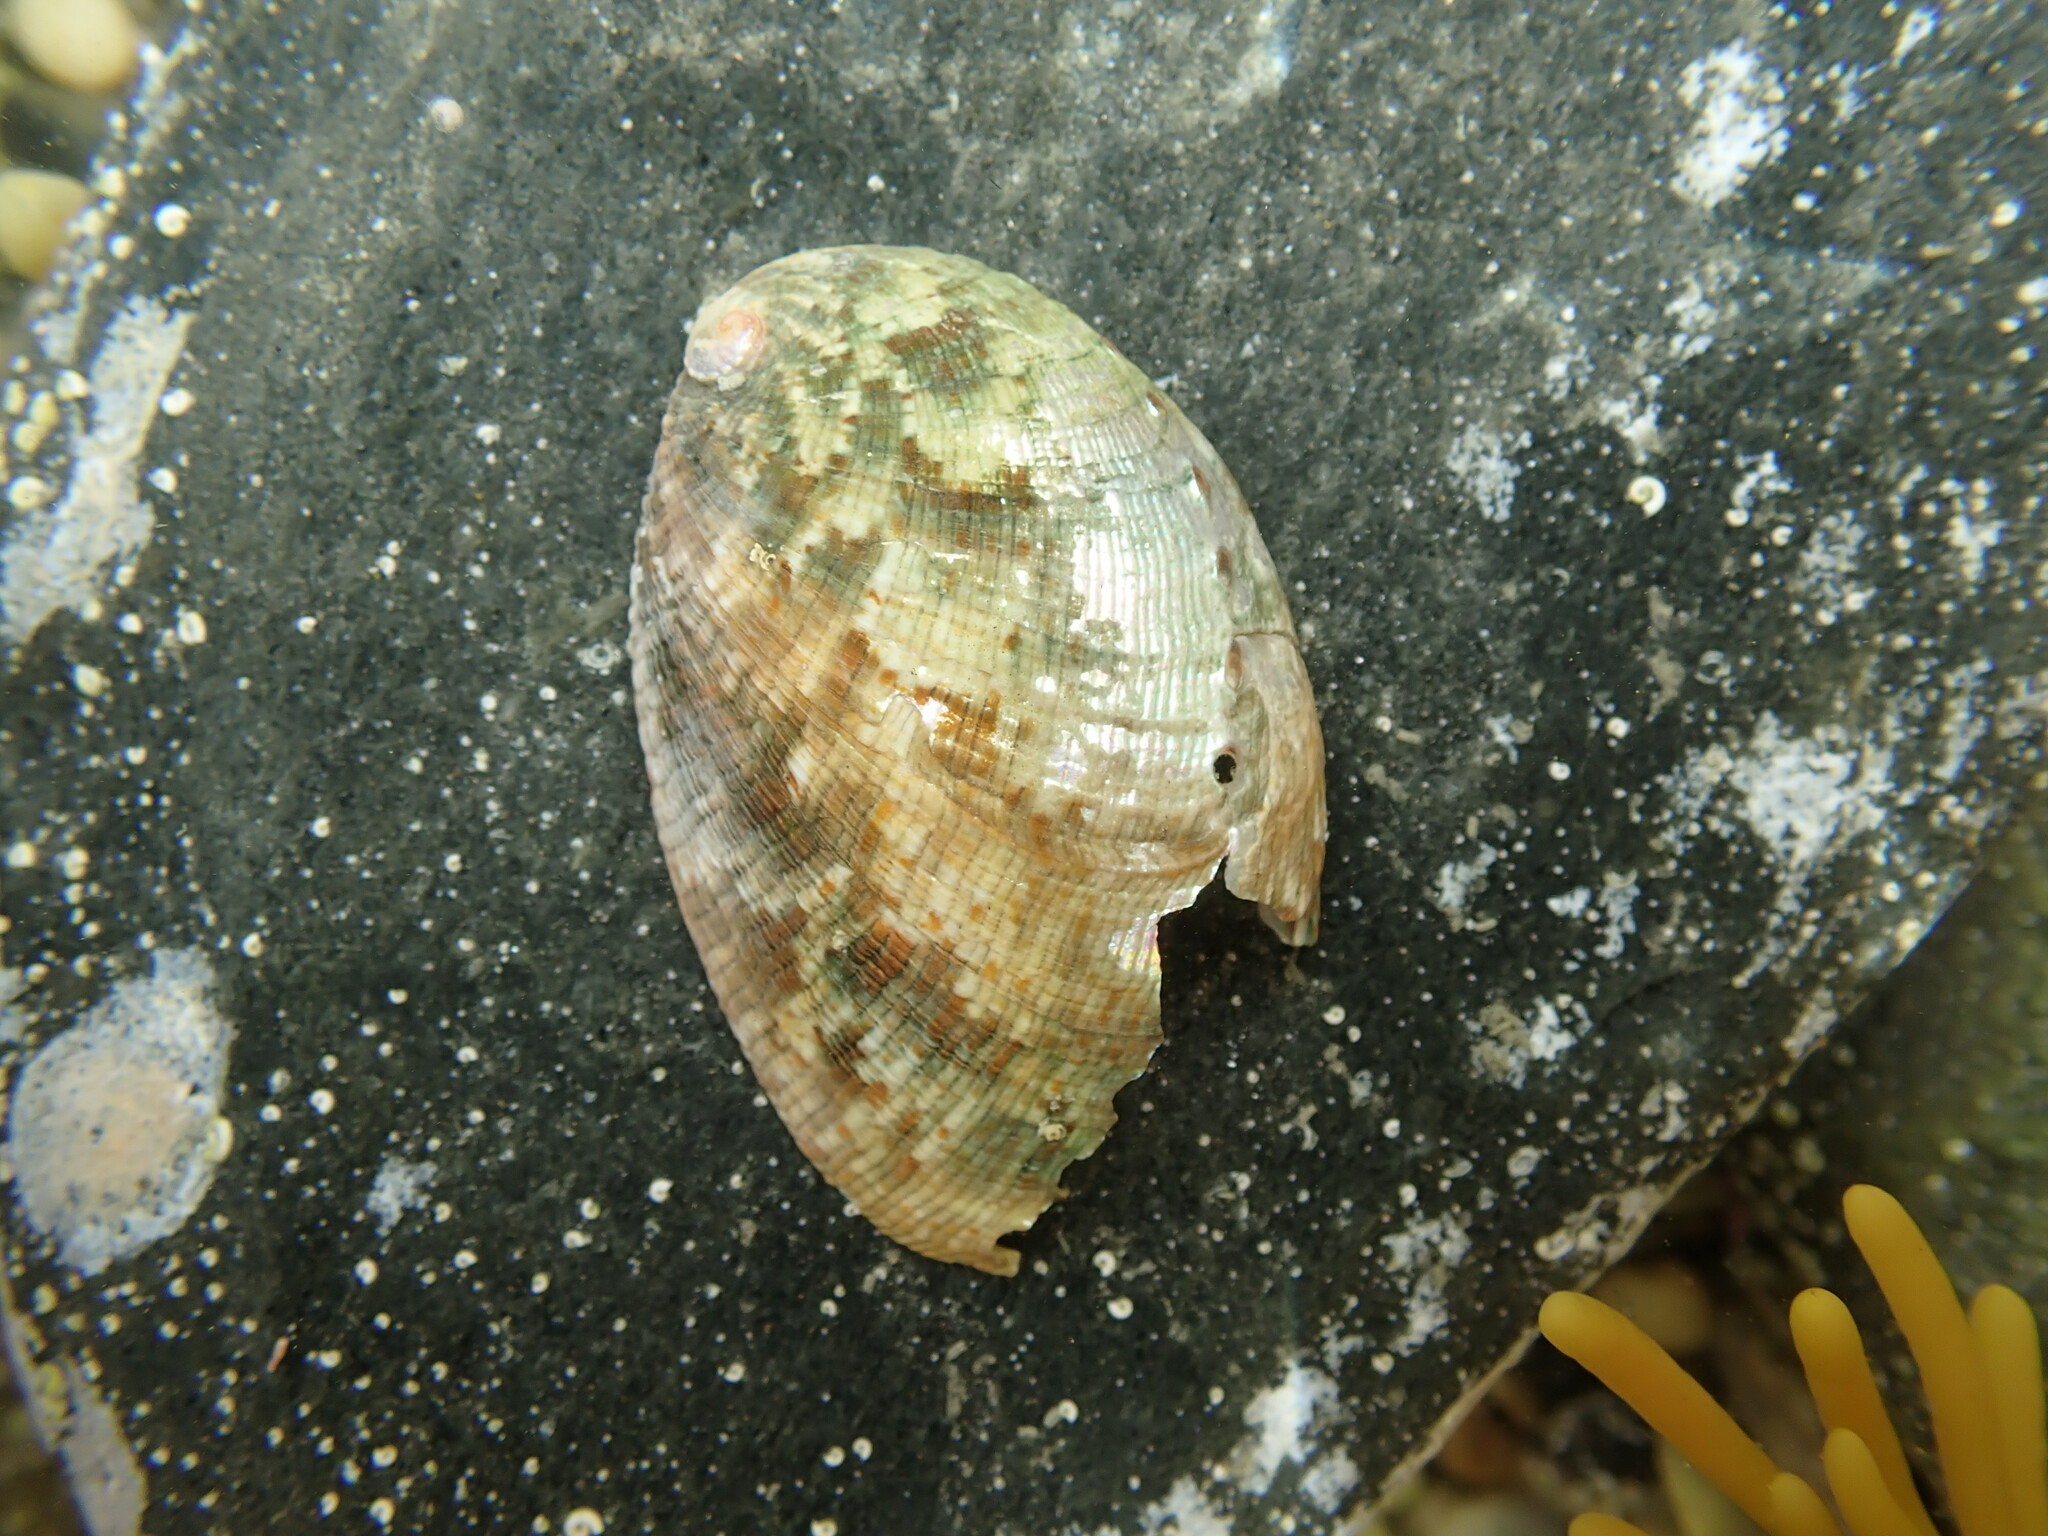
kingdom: Animalia
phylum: Mollusca
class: Gastropoda
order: Lepetellida
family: Haliotidae
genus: Haliotis
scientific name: Haliotis virginea
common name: Whitefoot paua
